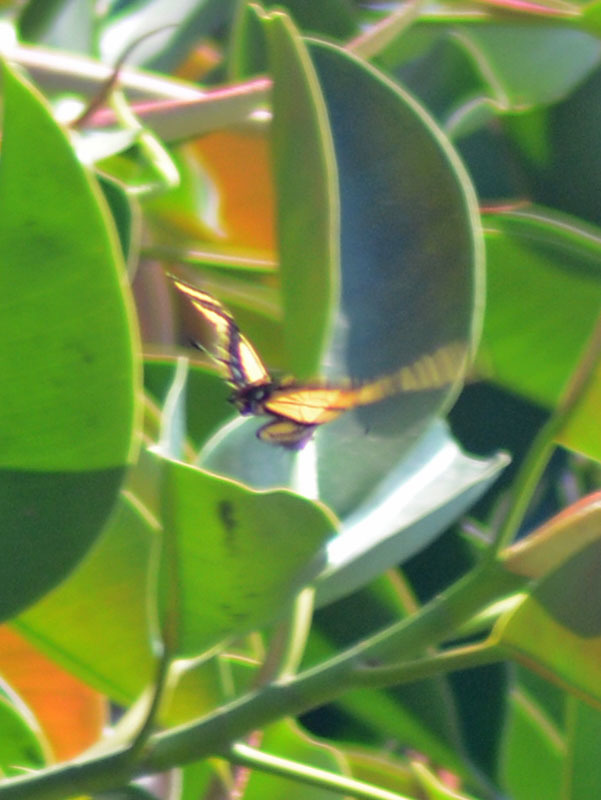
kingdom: Animalia
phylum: Arthropoda
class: Insecta
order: Lepidoptera
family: Papilionidae
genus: Papilio
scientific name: Papilio multicaudata
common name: Two-tailed tiger swallowtail
